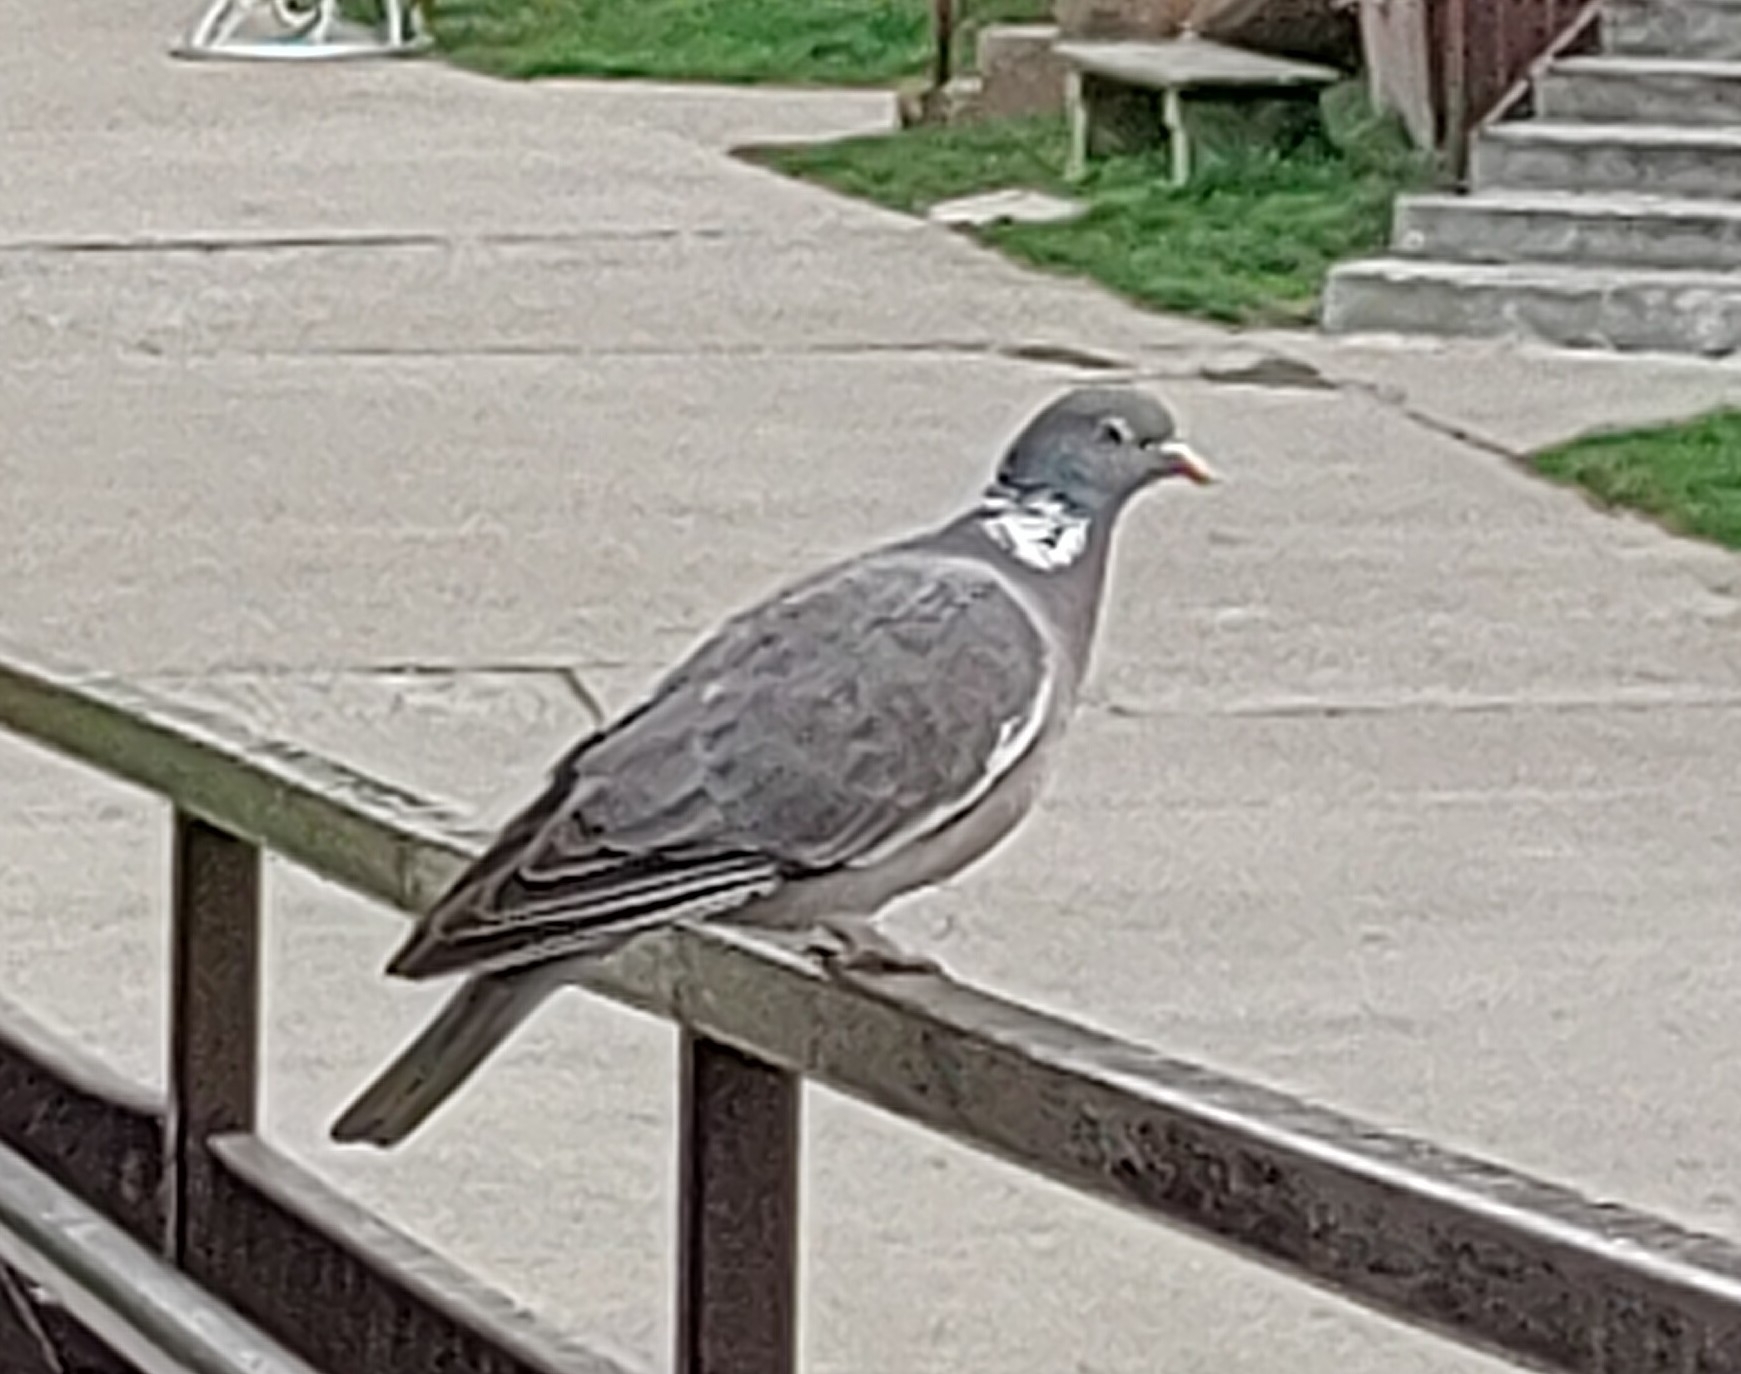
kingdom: Animalia
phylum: Chordata
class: Aves
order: Columbiformes
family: Columbidae
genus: Columba
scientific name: Columba palumbus
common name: Common wood pigeon
